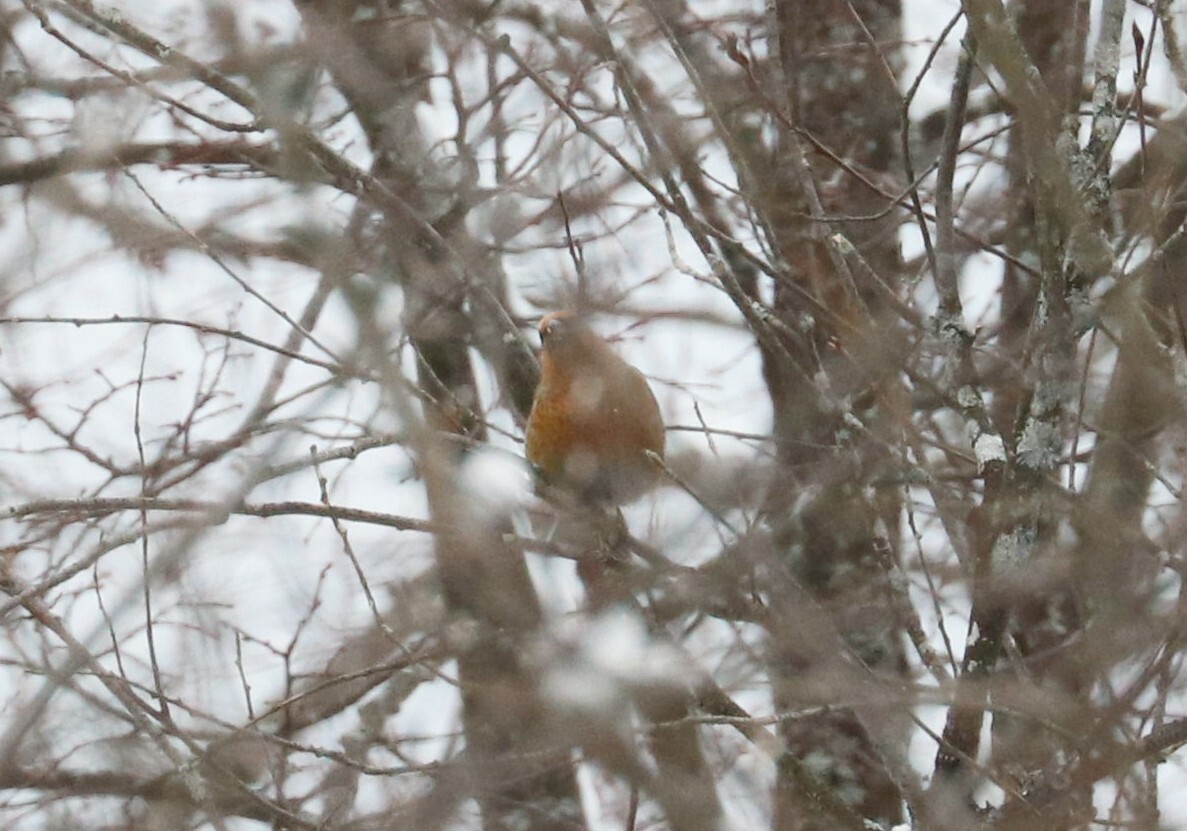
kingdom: Animalia
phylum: Chordata
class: Aves
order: Passeriformes
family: Fringillidae
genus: Pinicola
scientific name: Pinicola enucleator
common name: Pine grosbeak
